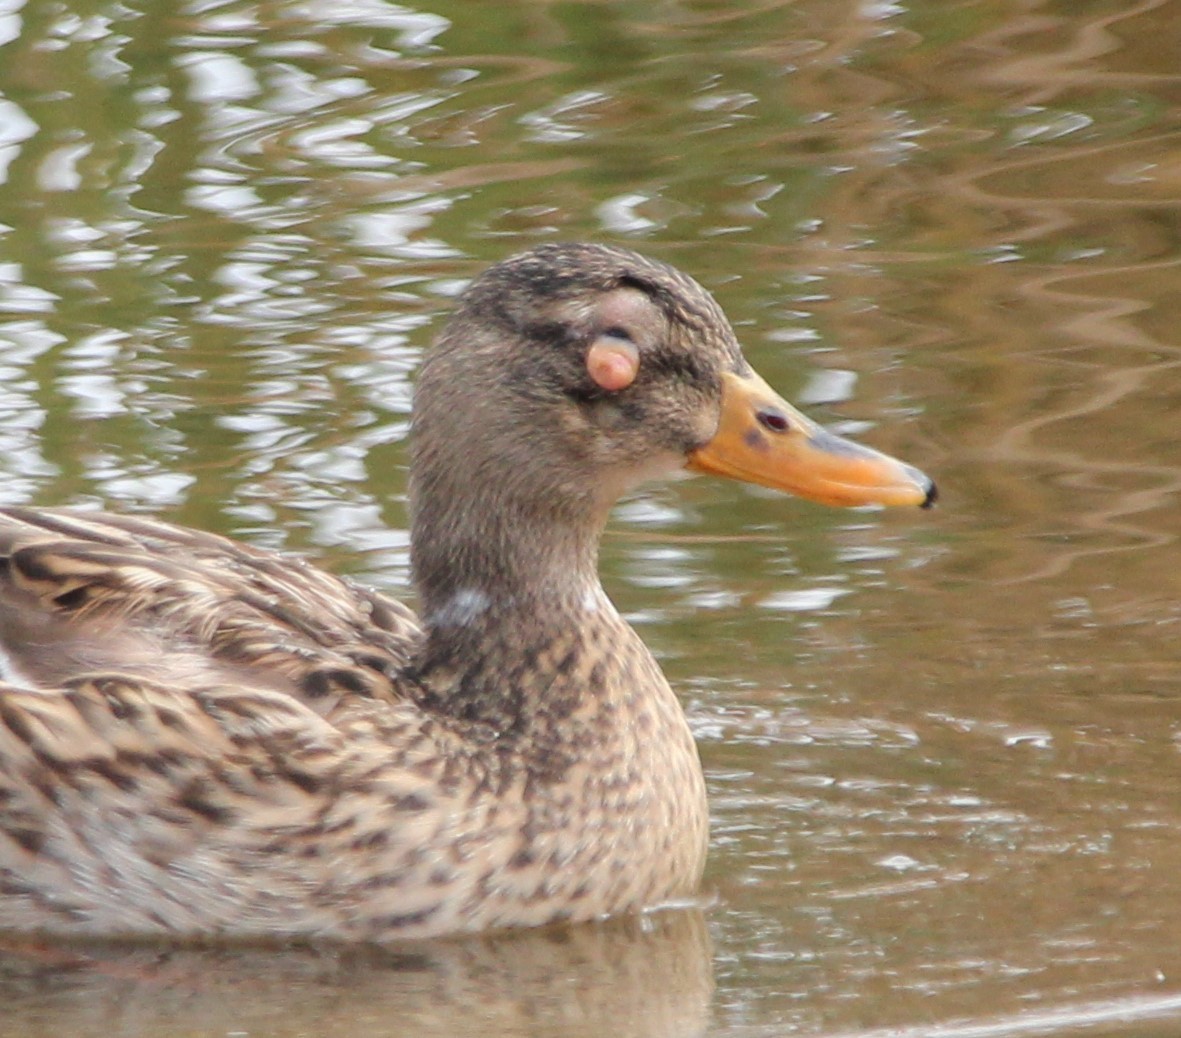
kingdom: Animalia
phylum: Chordata
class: Aves
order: Anseriformes
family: Anatidae
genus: Anas
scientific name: Anas platyrhynchos
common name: Mallard
